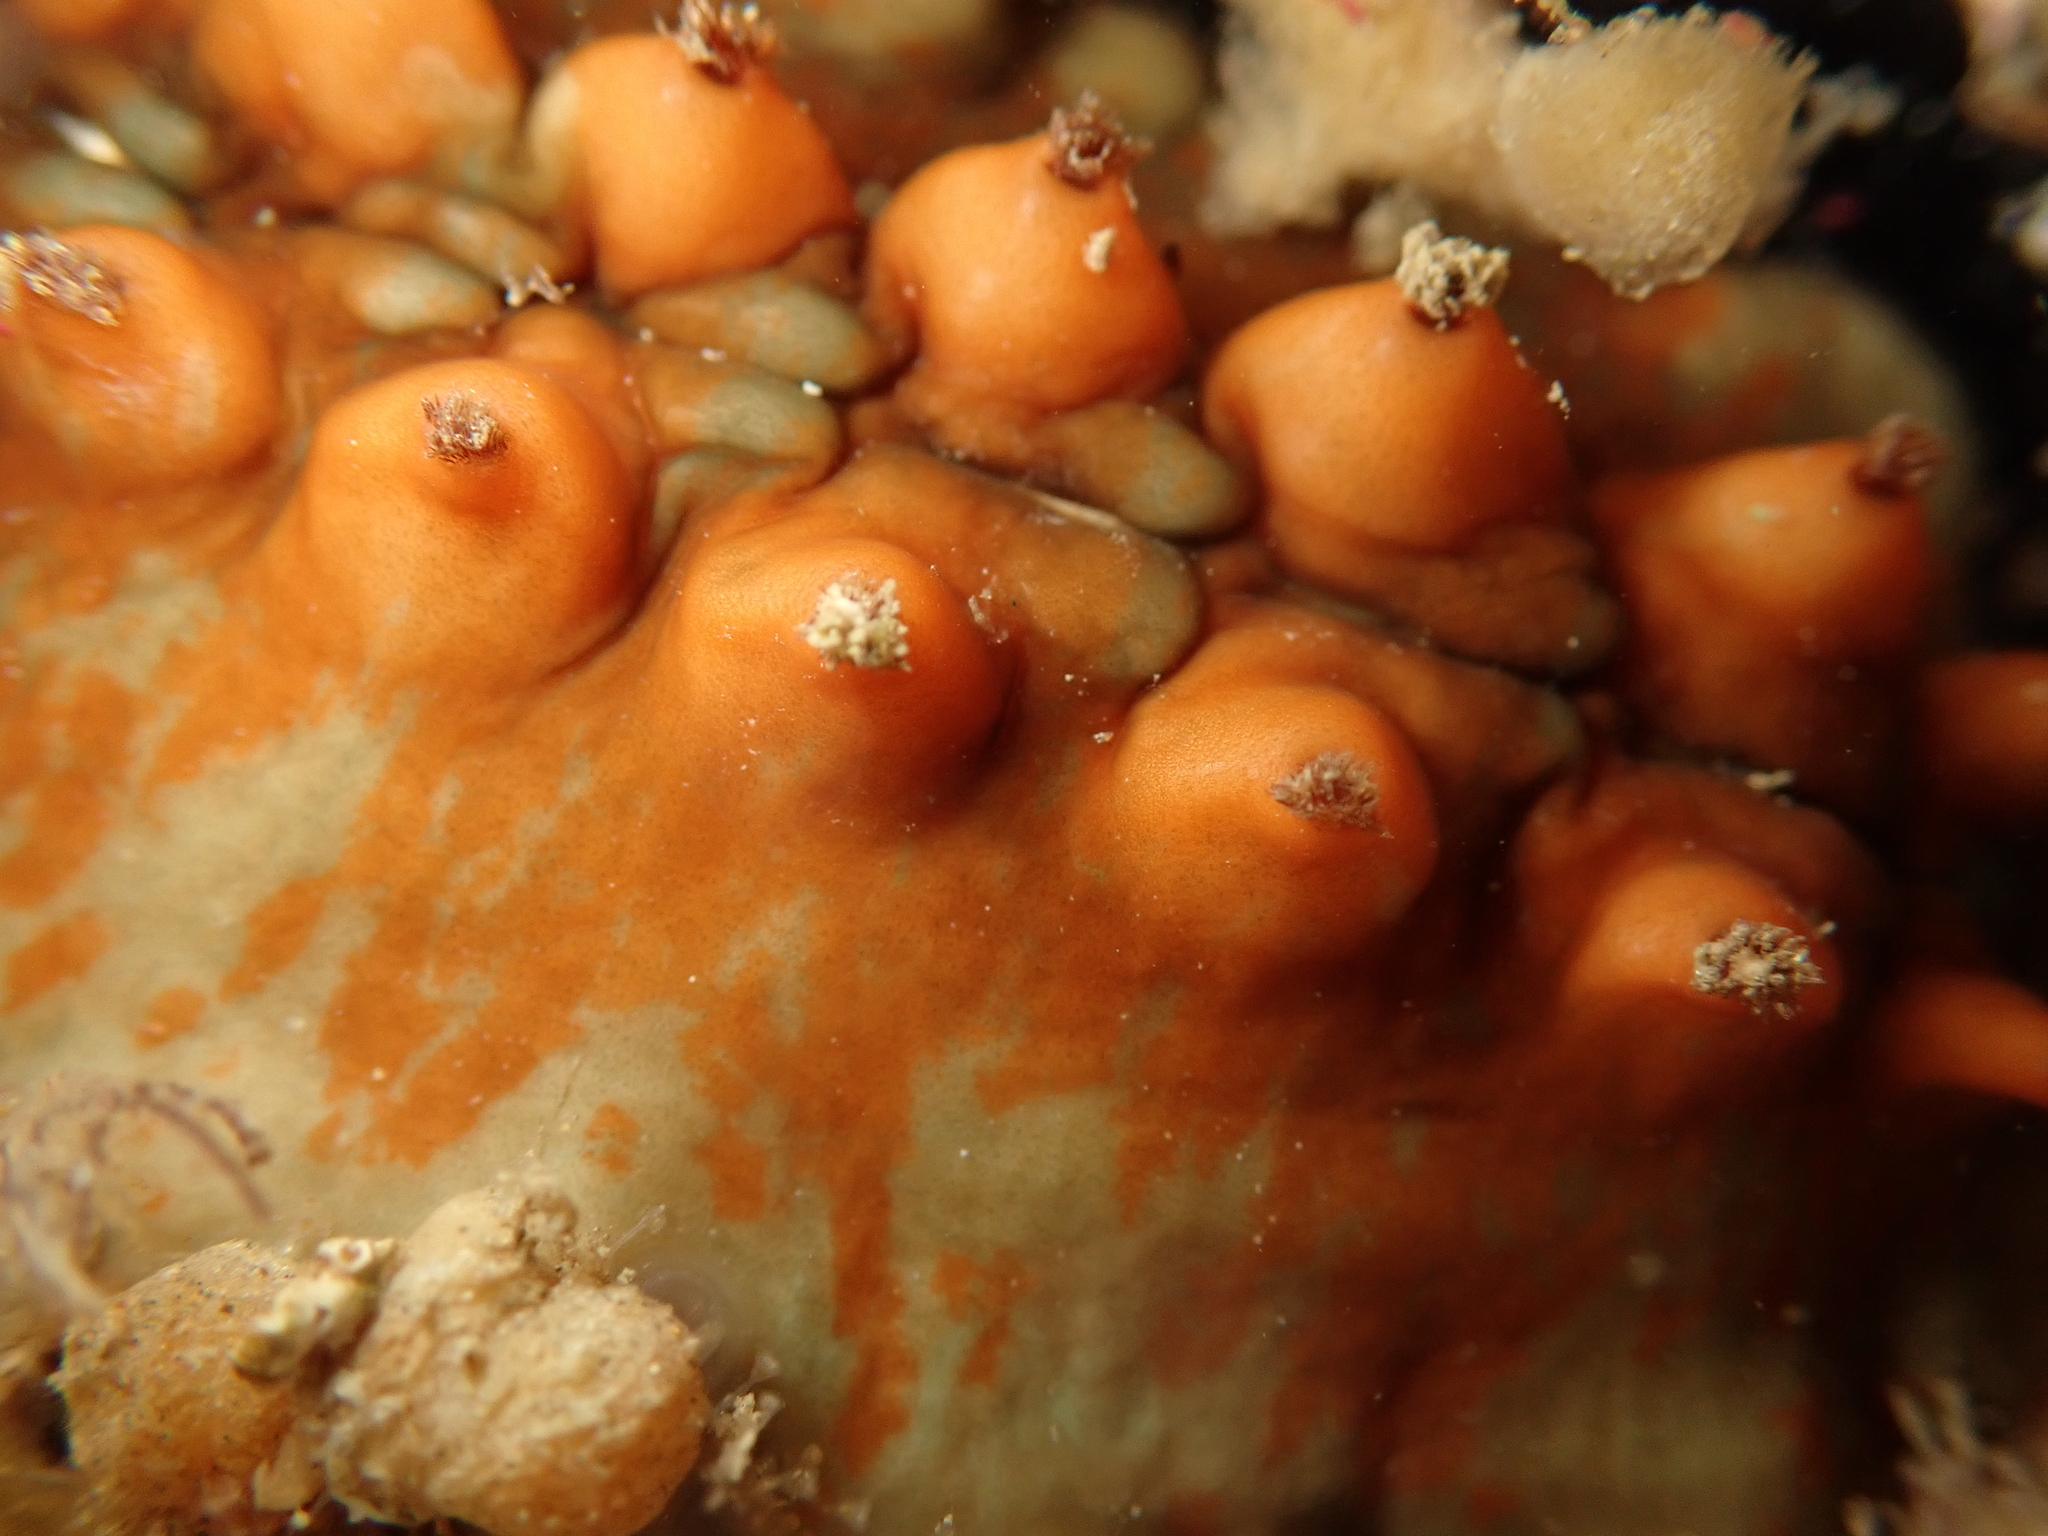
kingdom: Animalia
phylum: Mollusca
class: Polyplacophora
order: Chitonida
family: Acanthochitonidae
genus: Cryptoconchus
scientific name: Cryptoconchus porosus
